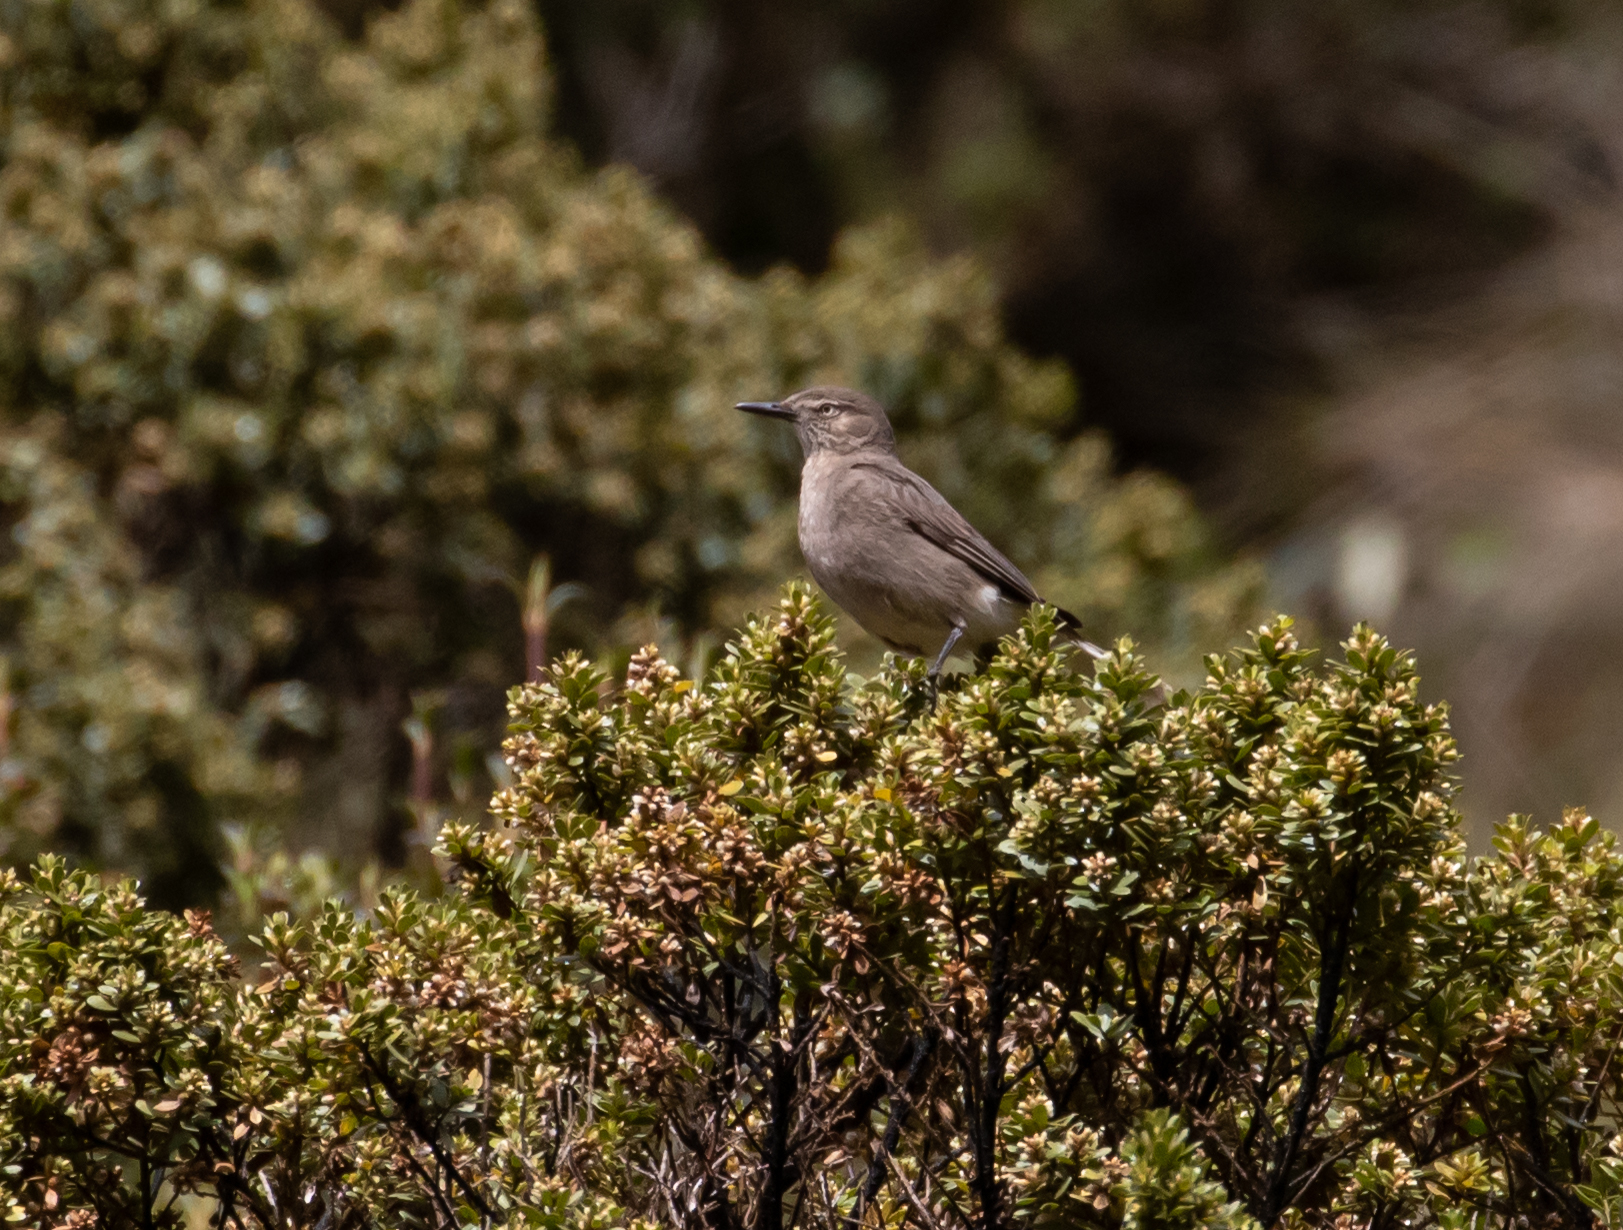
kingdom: Animalia
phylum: Chordata
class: Aves
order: Passeriformes
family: Tyrannidae
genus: Agriornis
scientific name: Agriornis montanus
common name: Black-billed shrike-tyrant
